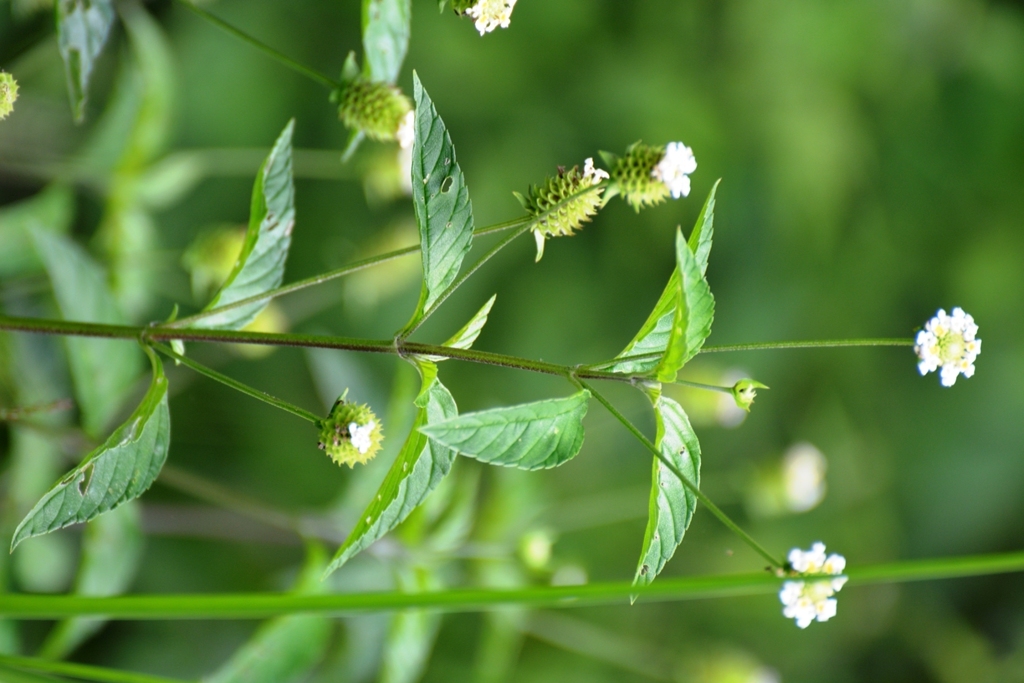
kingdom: Plantae
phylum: Tracheophyta
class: Magnoliopsida
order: Lamiales
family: Verbenaceae
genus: Lippia
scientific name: Lippia dulcis
